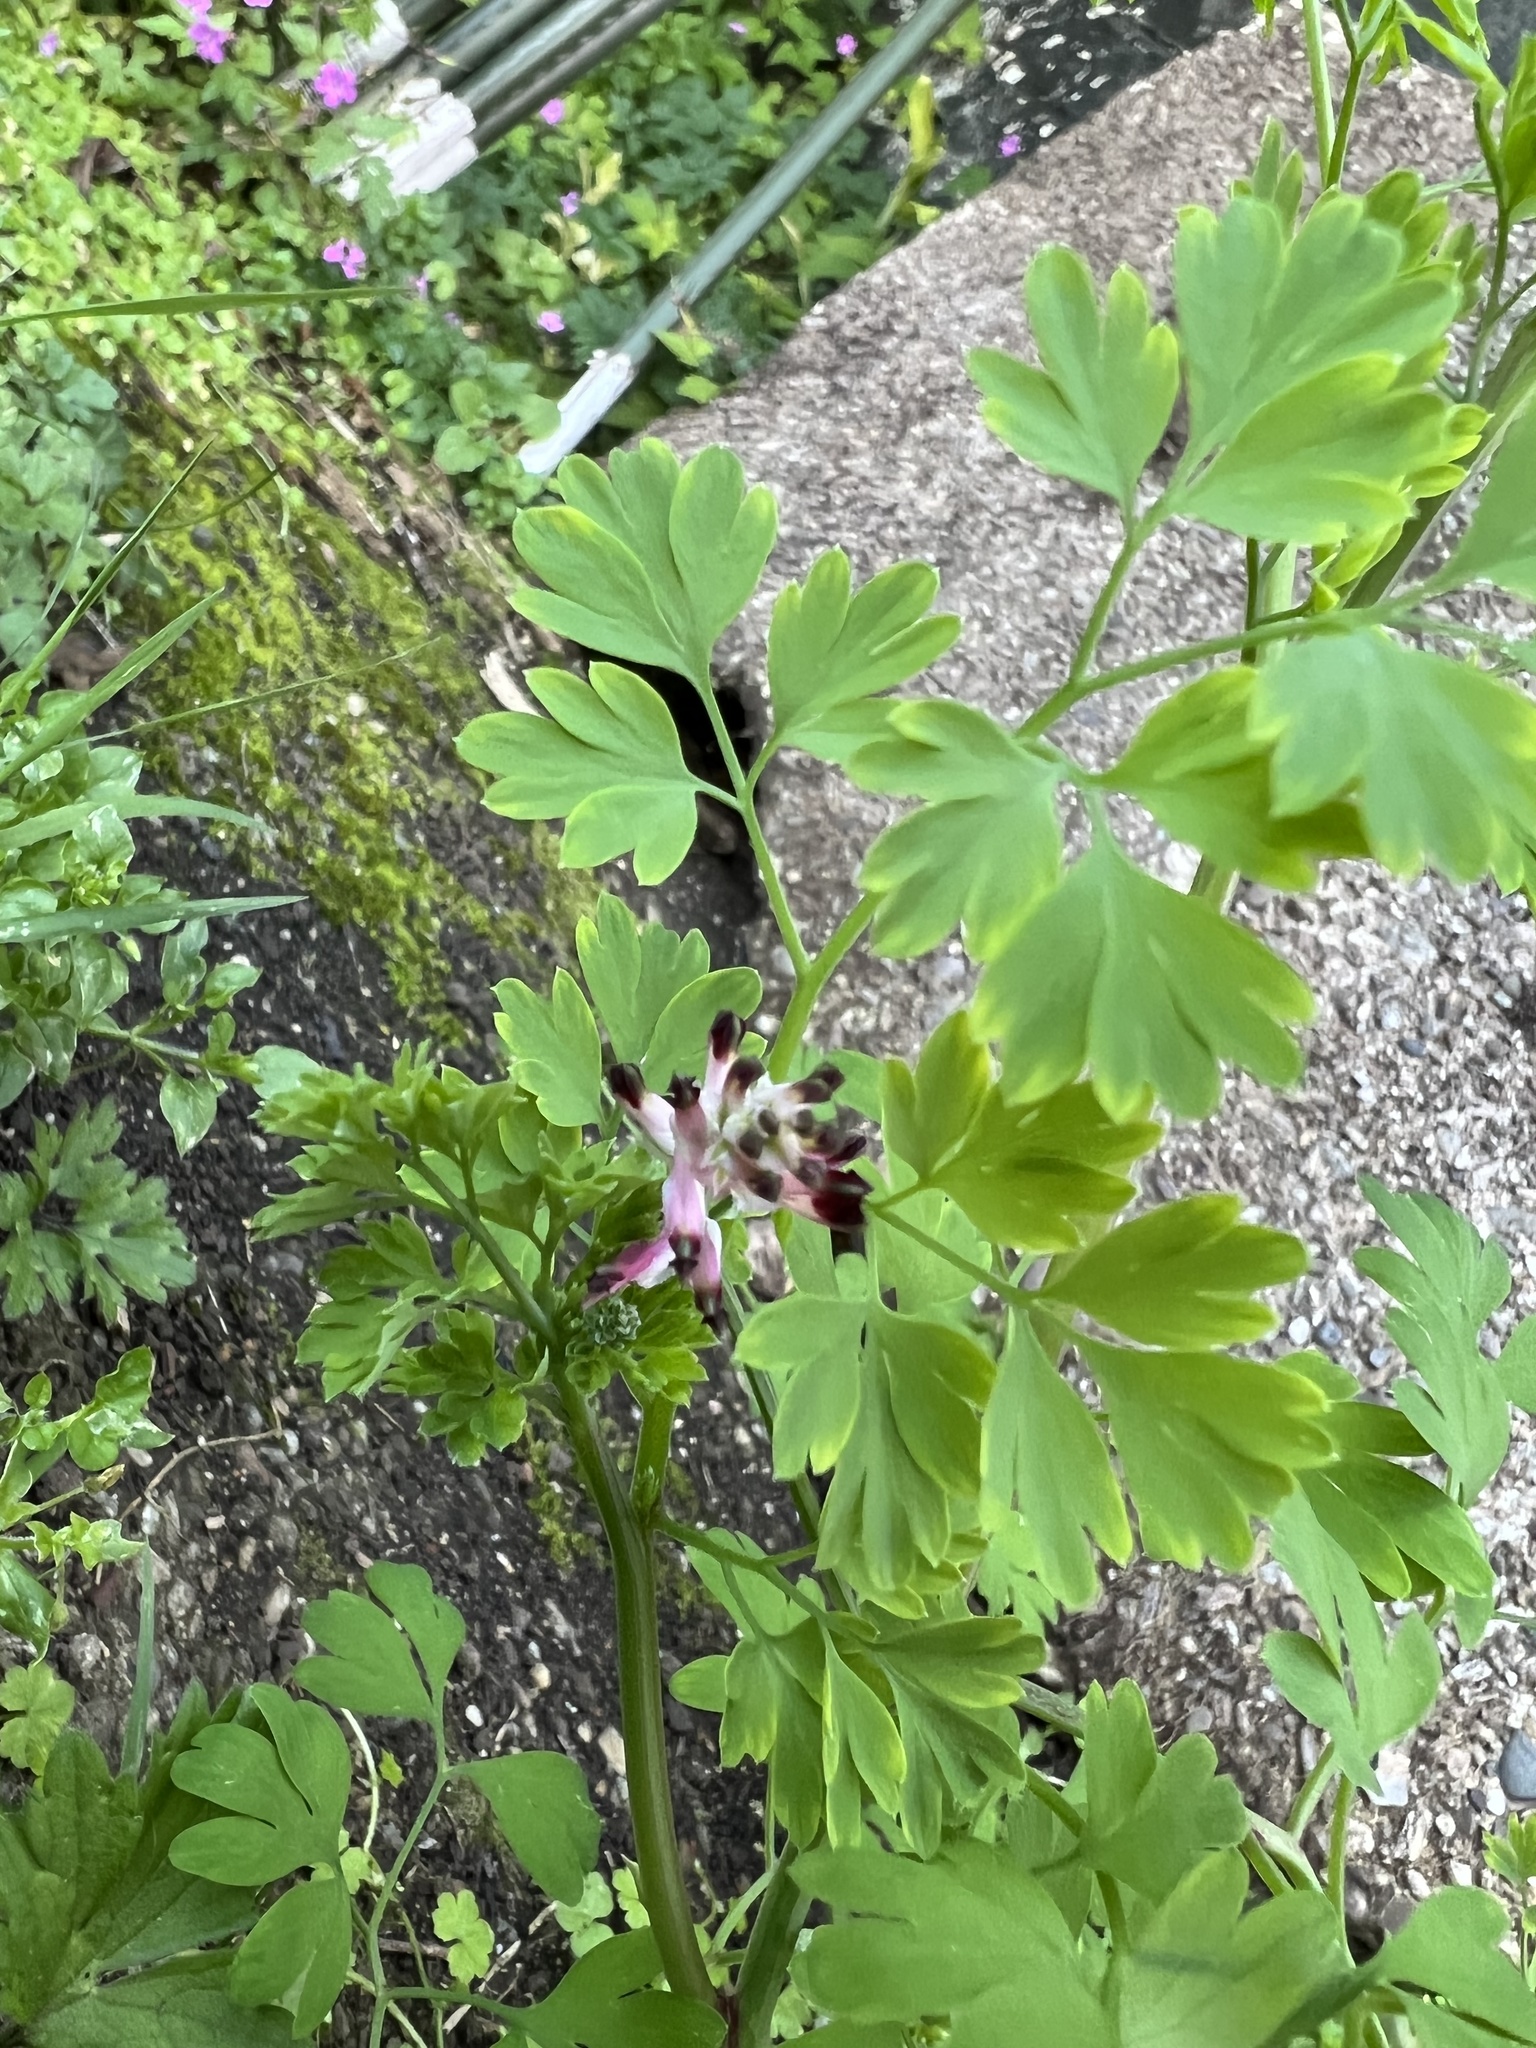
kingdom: Plantae
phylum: Tracheophyta
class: Magnoliopsida
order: Ranunculales
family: Papaveraceae
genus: Fumaria
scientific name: Fumaria muralis
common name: Common ramping-fumitory
